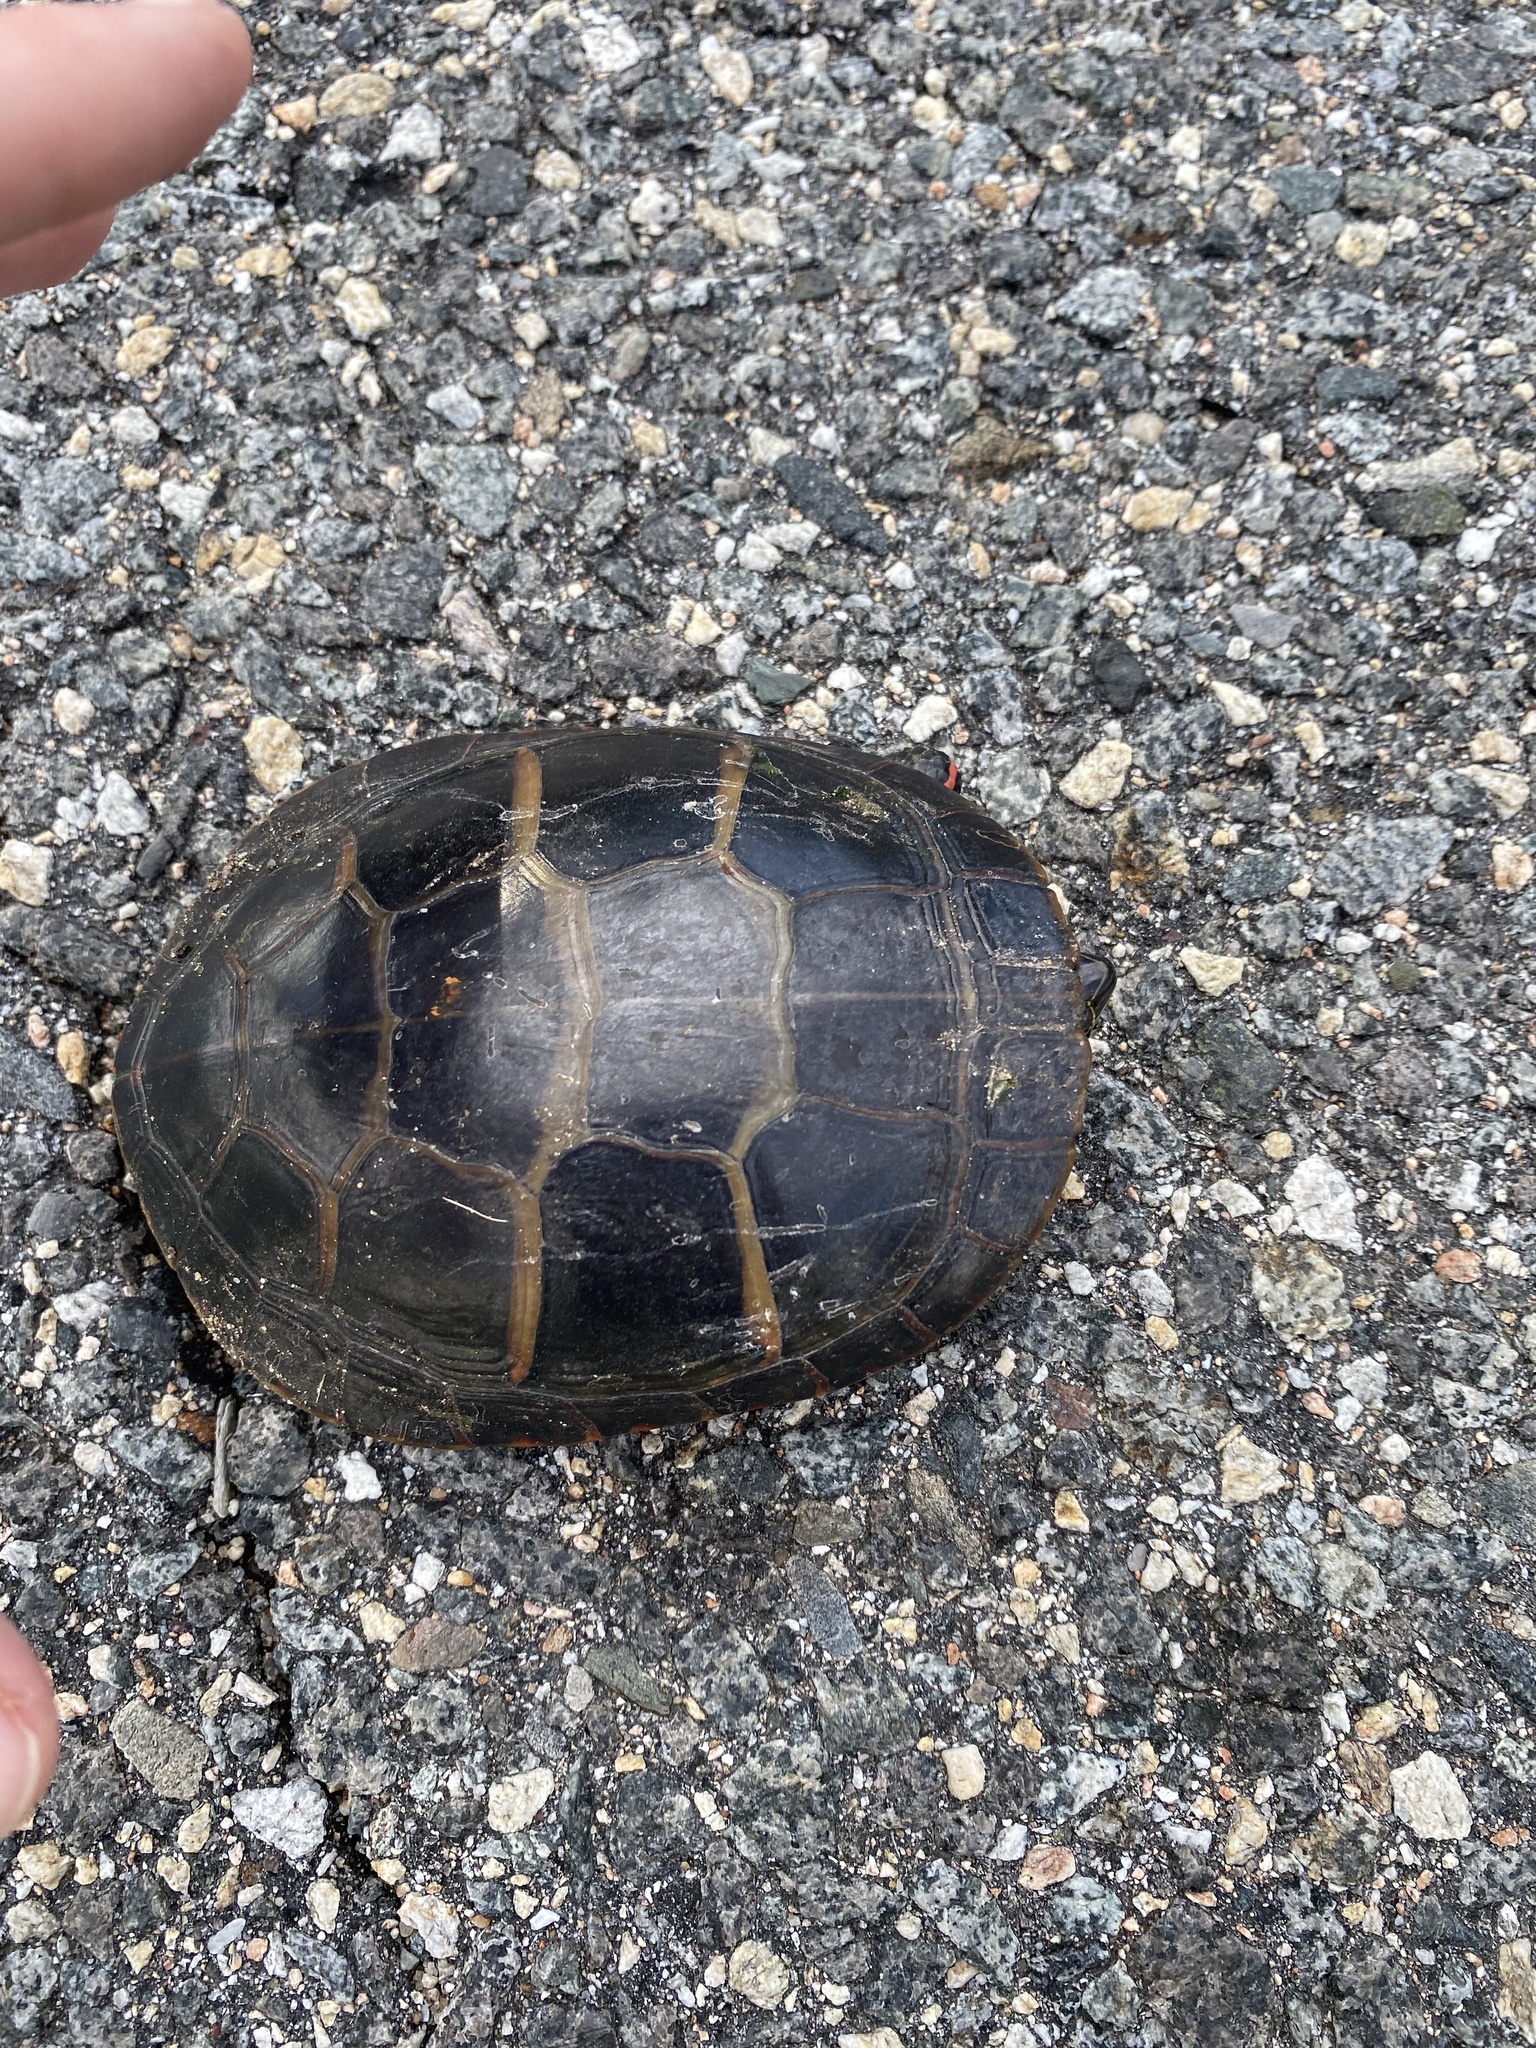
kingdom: Animalia
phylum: Chordata
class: Testudines
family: Emydidae
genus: Chrysemys
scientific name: Chrysemys picta
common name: Painted turtle
